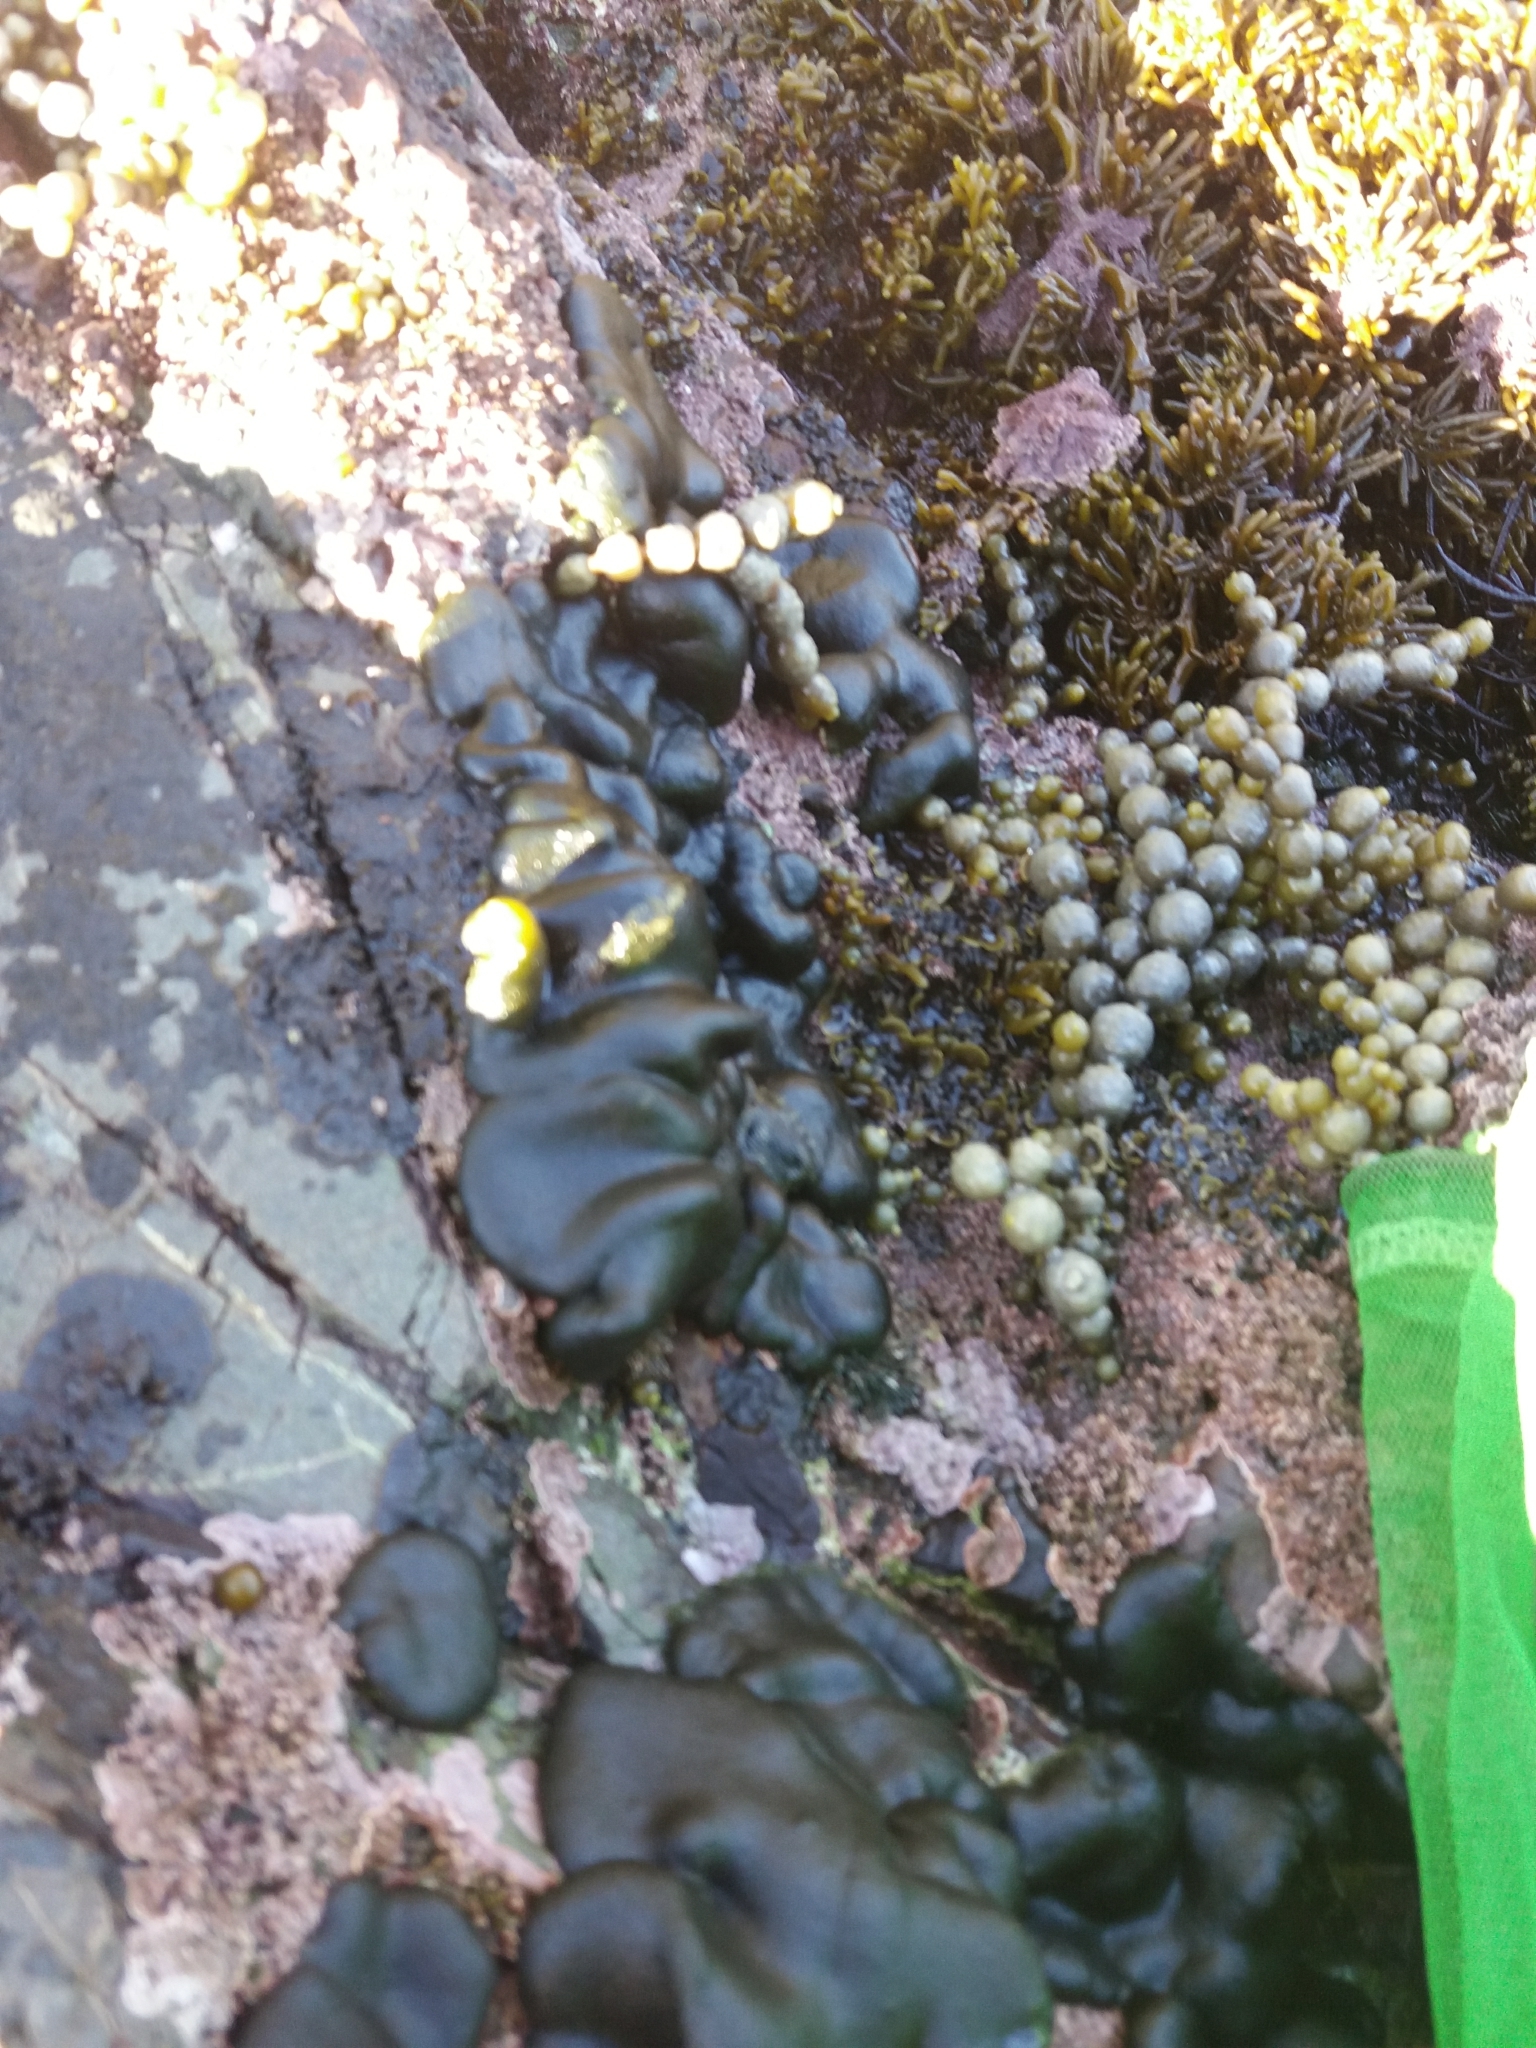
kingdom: Plantae
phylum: Chlorophyta
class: Ulvophyceae
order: Bryopsidales
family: Codiaceae
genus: Codium
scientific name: Codium convolutum
